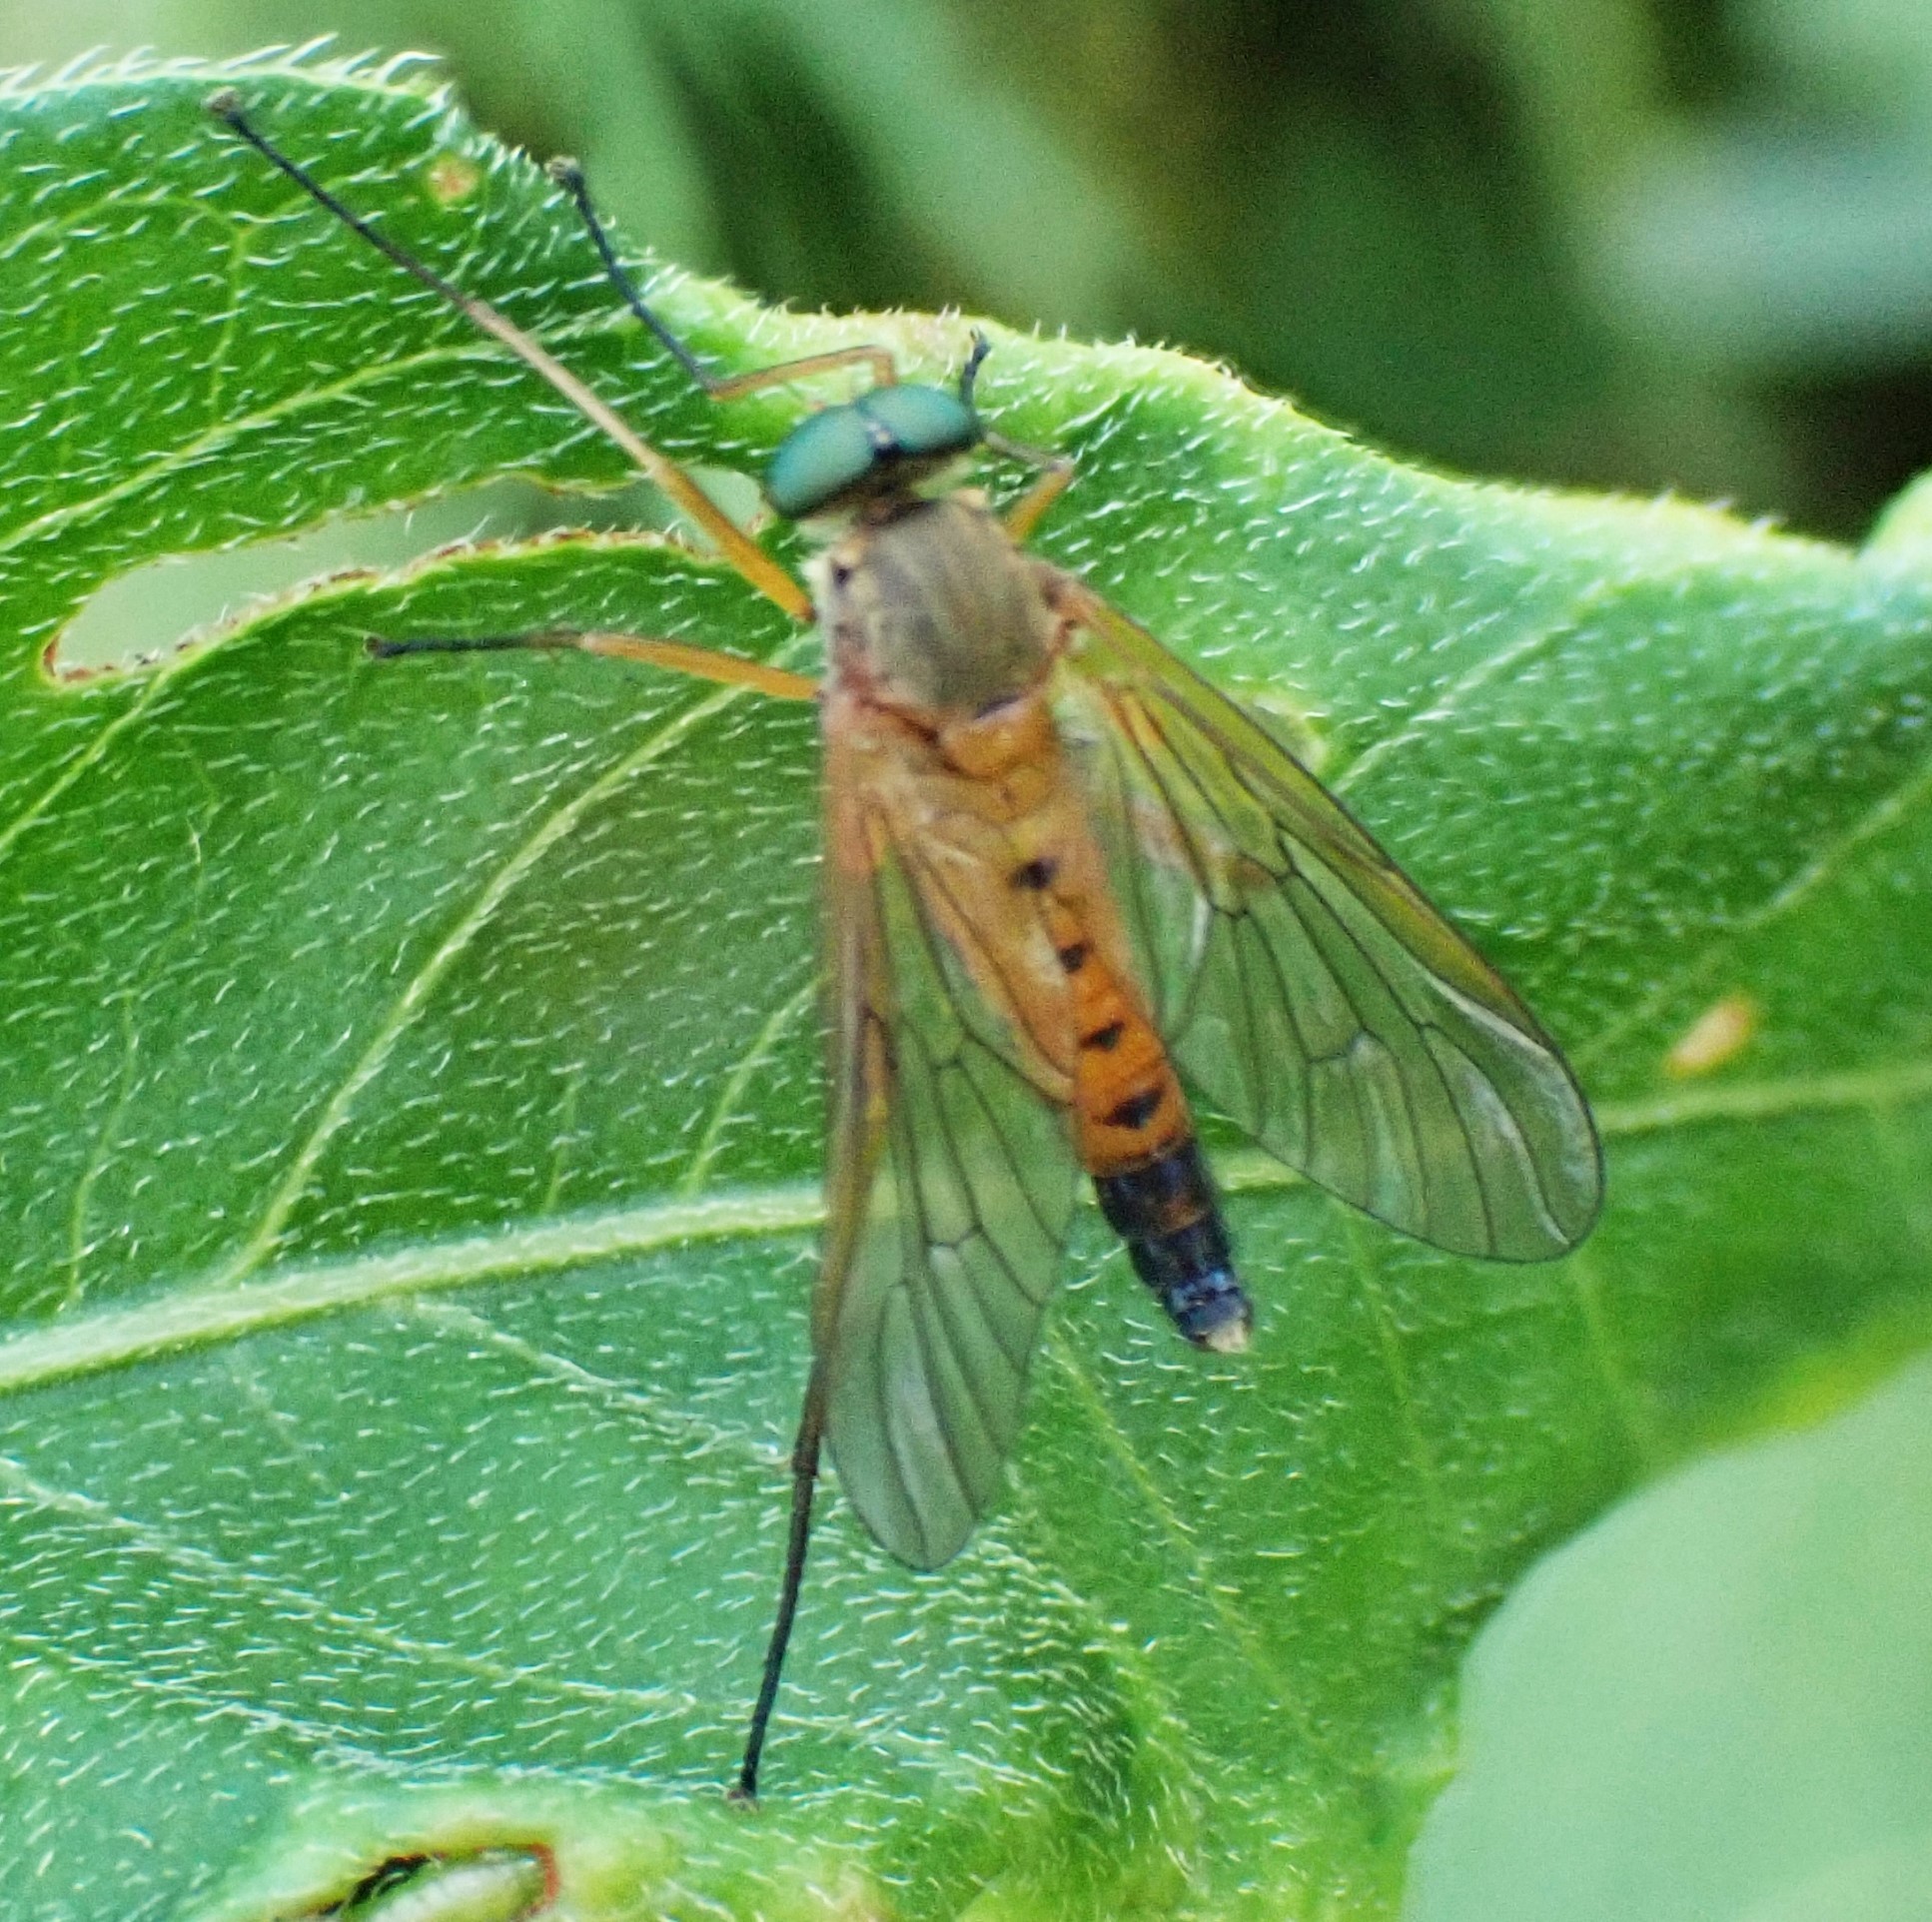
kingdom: Animalia
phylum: Arthropoda
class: Insecta
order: Diptera
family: Rhagionidae
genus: Rhagio
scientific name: Rhagio tringaria
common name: Marsh snipefly
